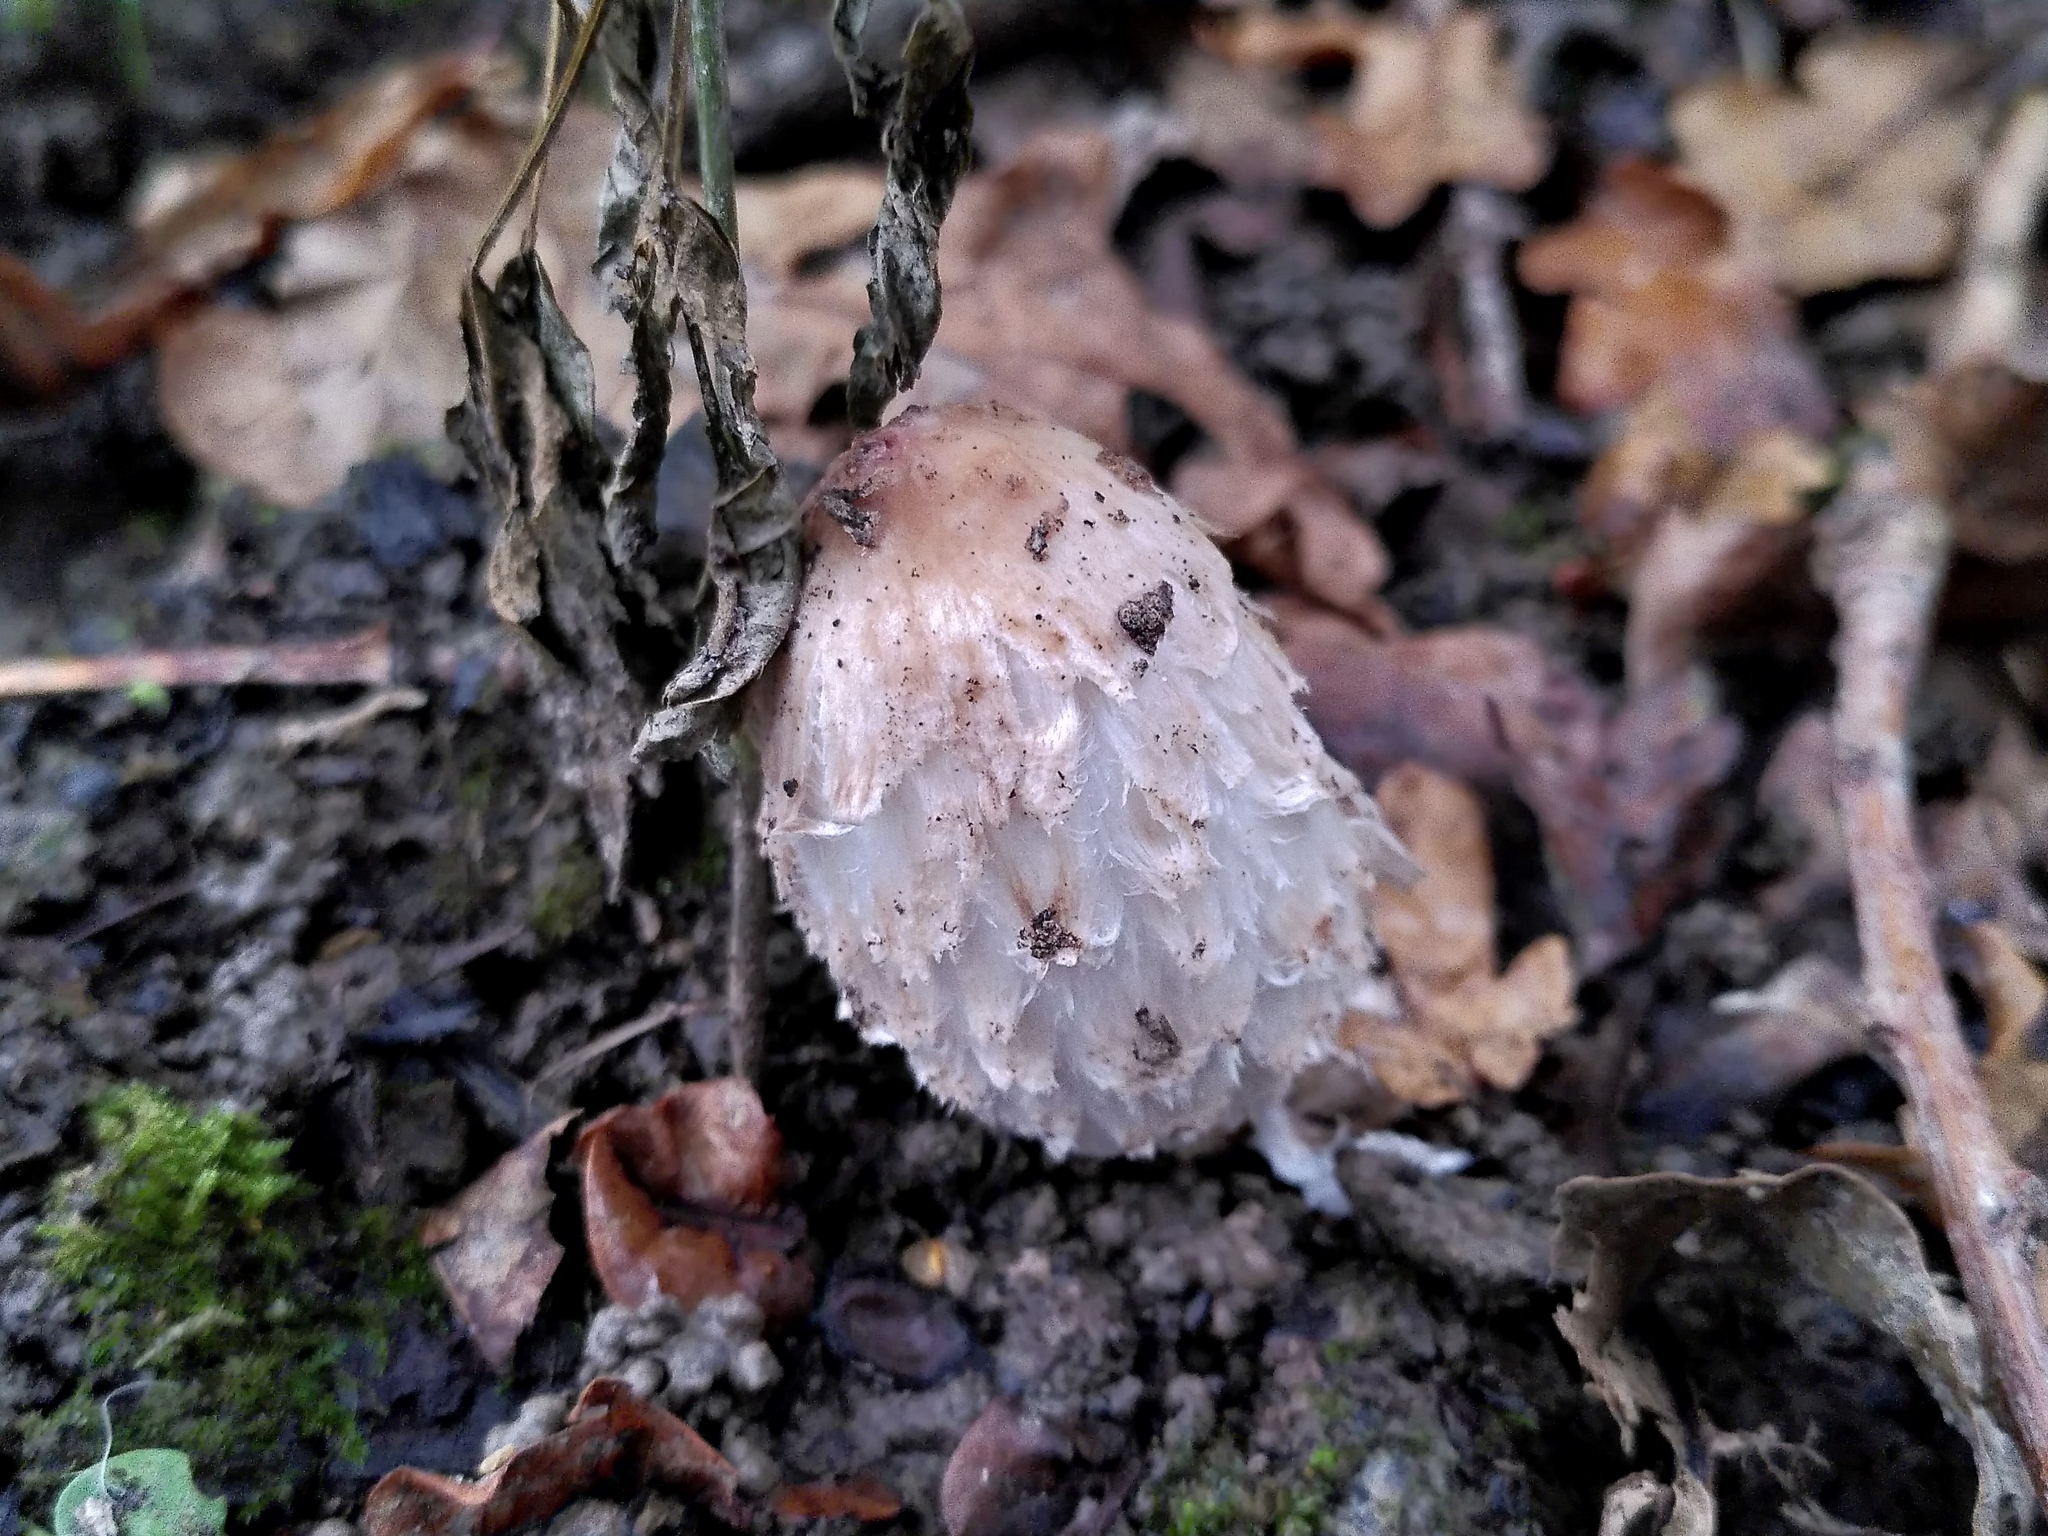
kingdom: Fungi
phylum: Basidiomycota
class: Agaricomycetes
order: Agaricales
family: Agaricaceae
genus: Coprinus
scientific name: Coprinus comatus
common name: Lawyer's wig
